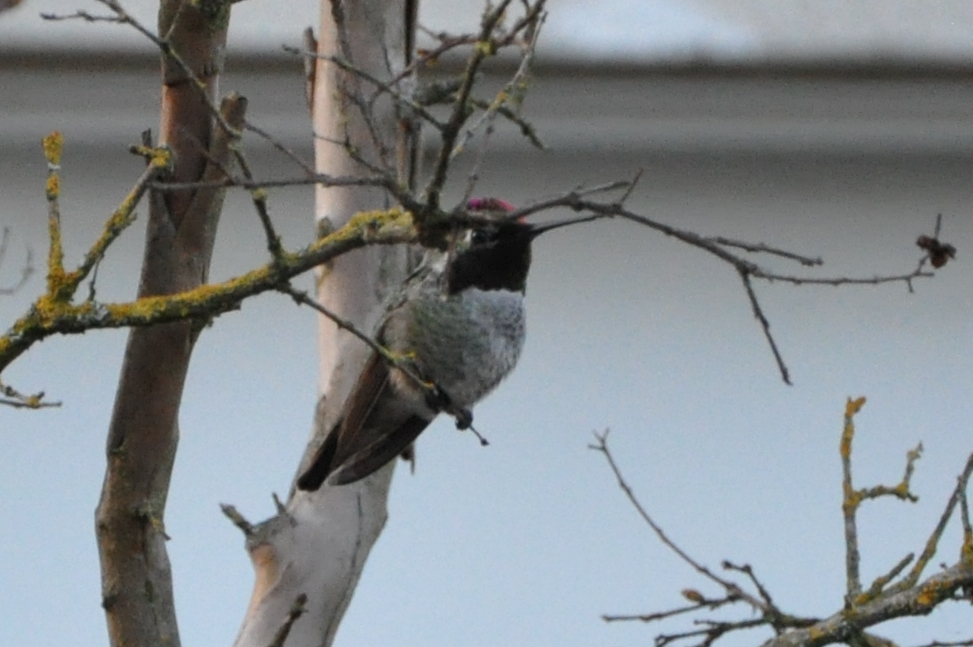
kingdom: Animalia
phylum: Chordata
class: Aves
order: Apodiformes
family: Trochilidae
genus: Calypte
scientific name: Calypte anna
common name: Anna's hummingbird
